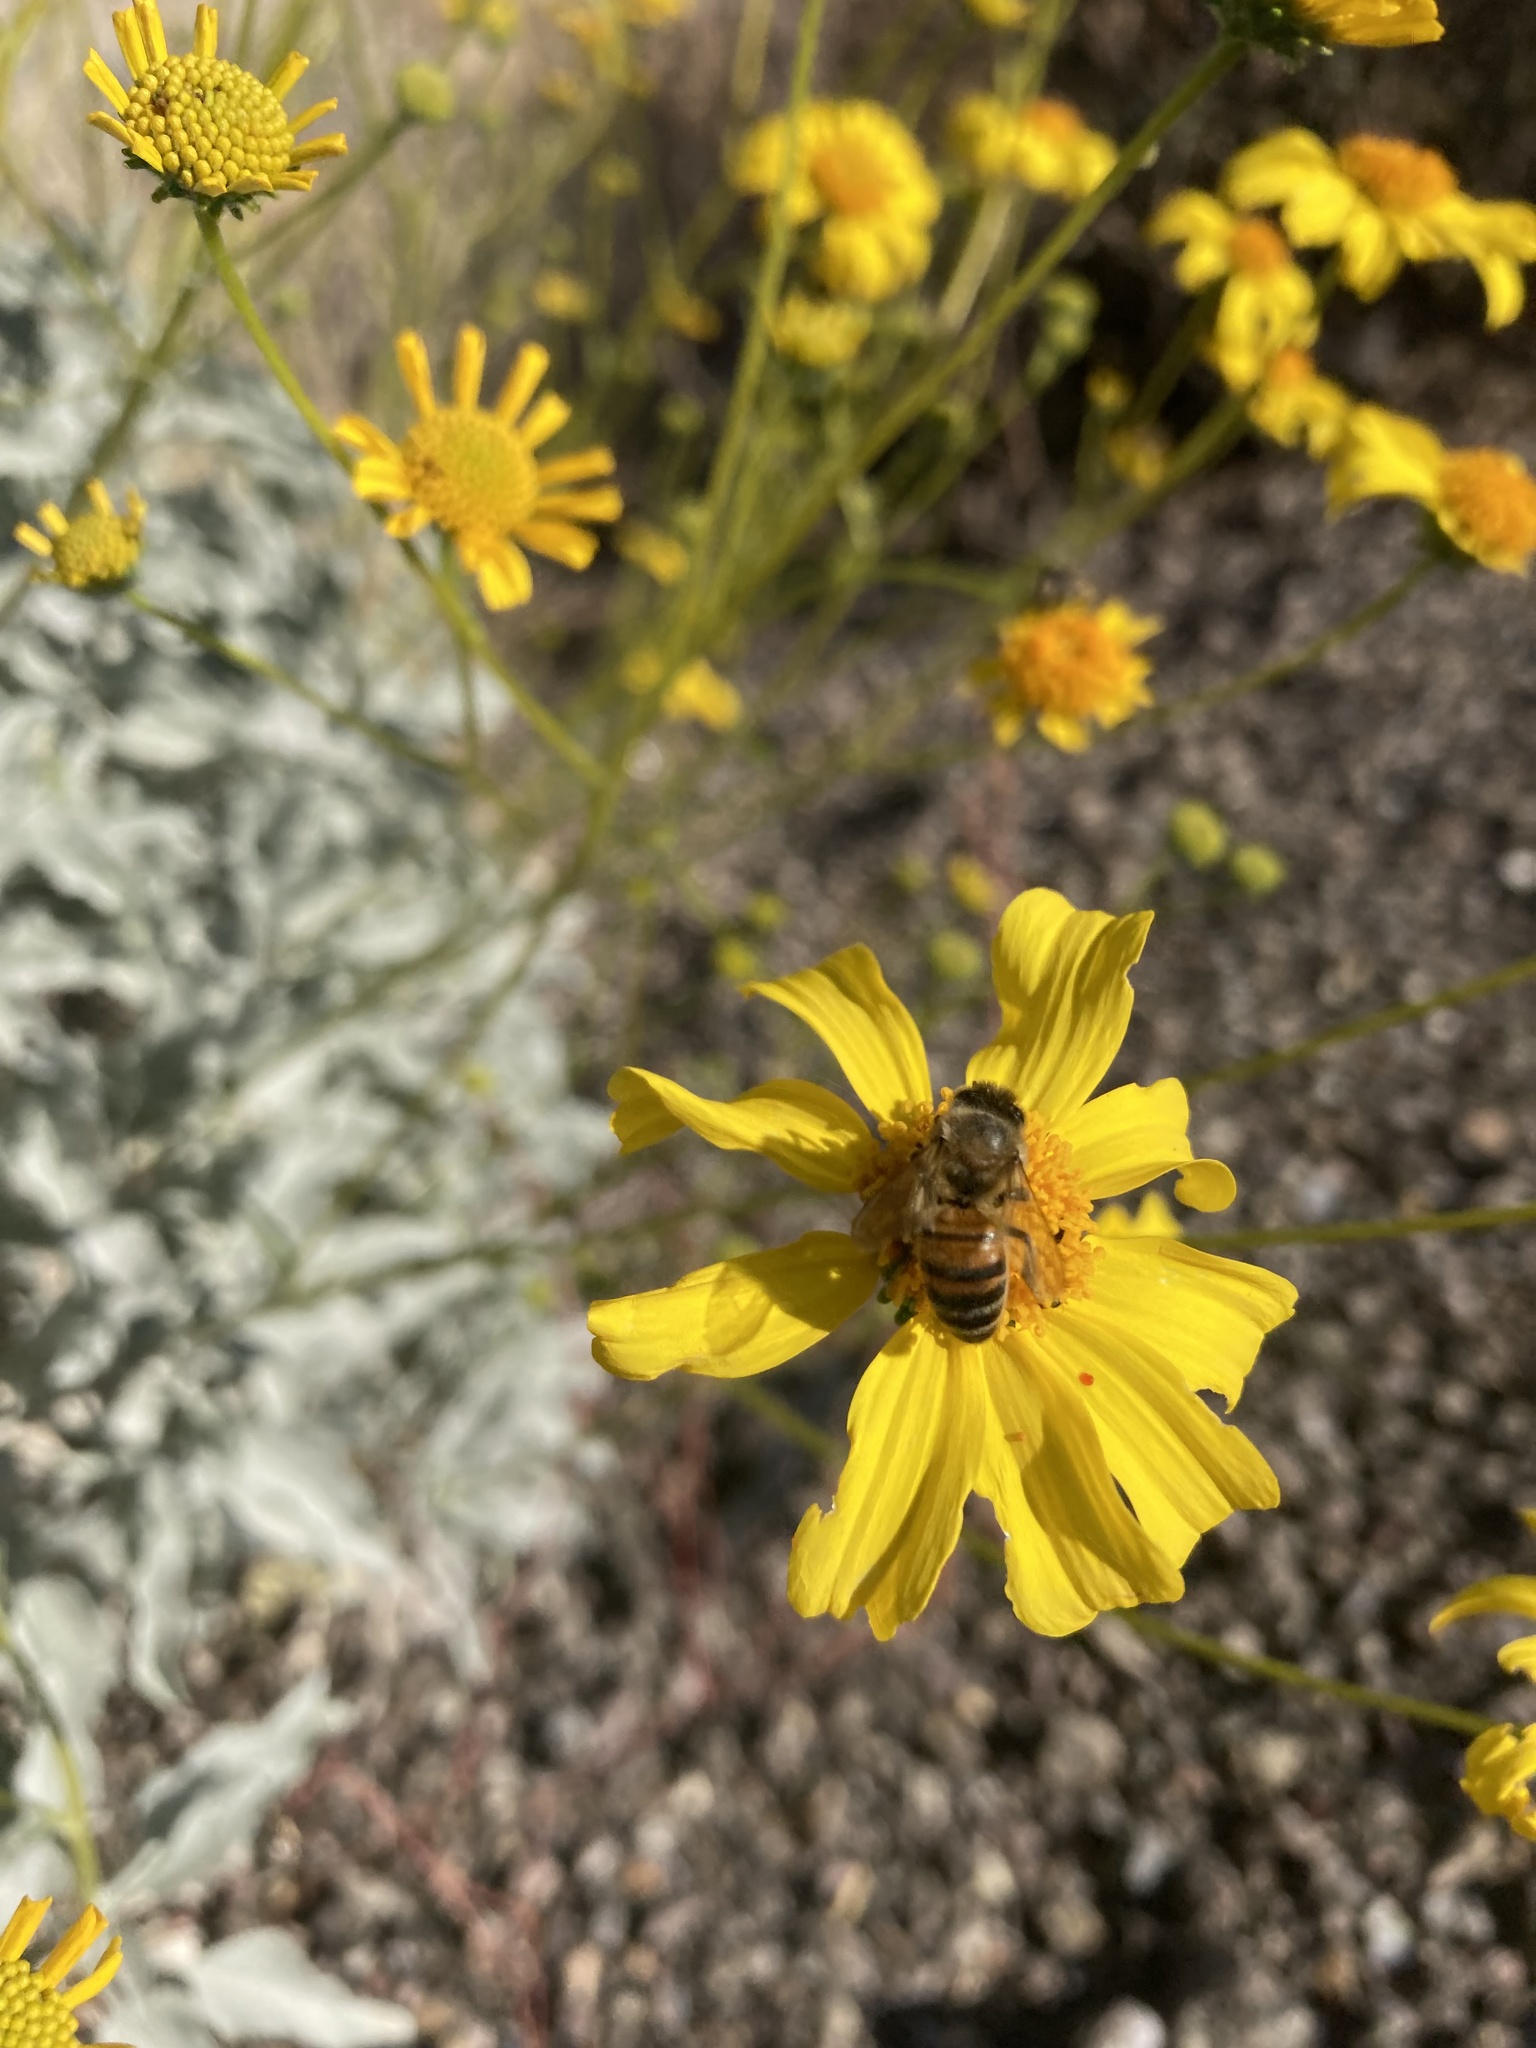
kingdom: Animalia
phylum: Arthropoda
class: Insecta
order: Hymenoptera
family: Apidae
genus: Apis
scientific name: Apis mellifera
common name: Honey bee
